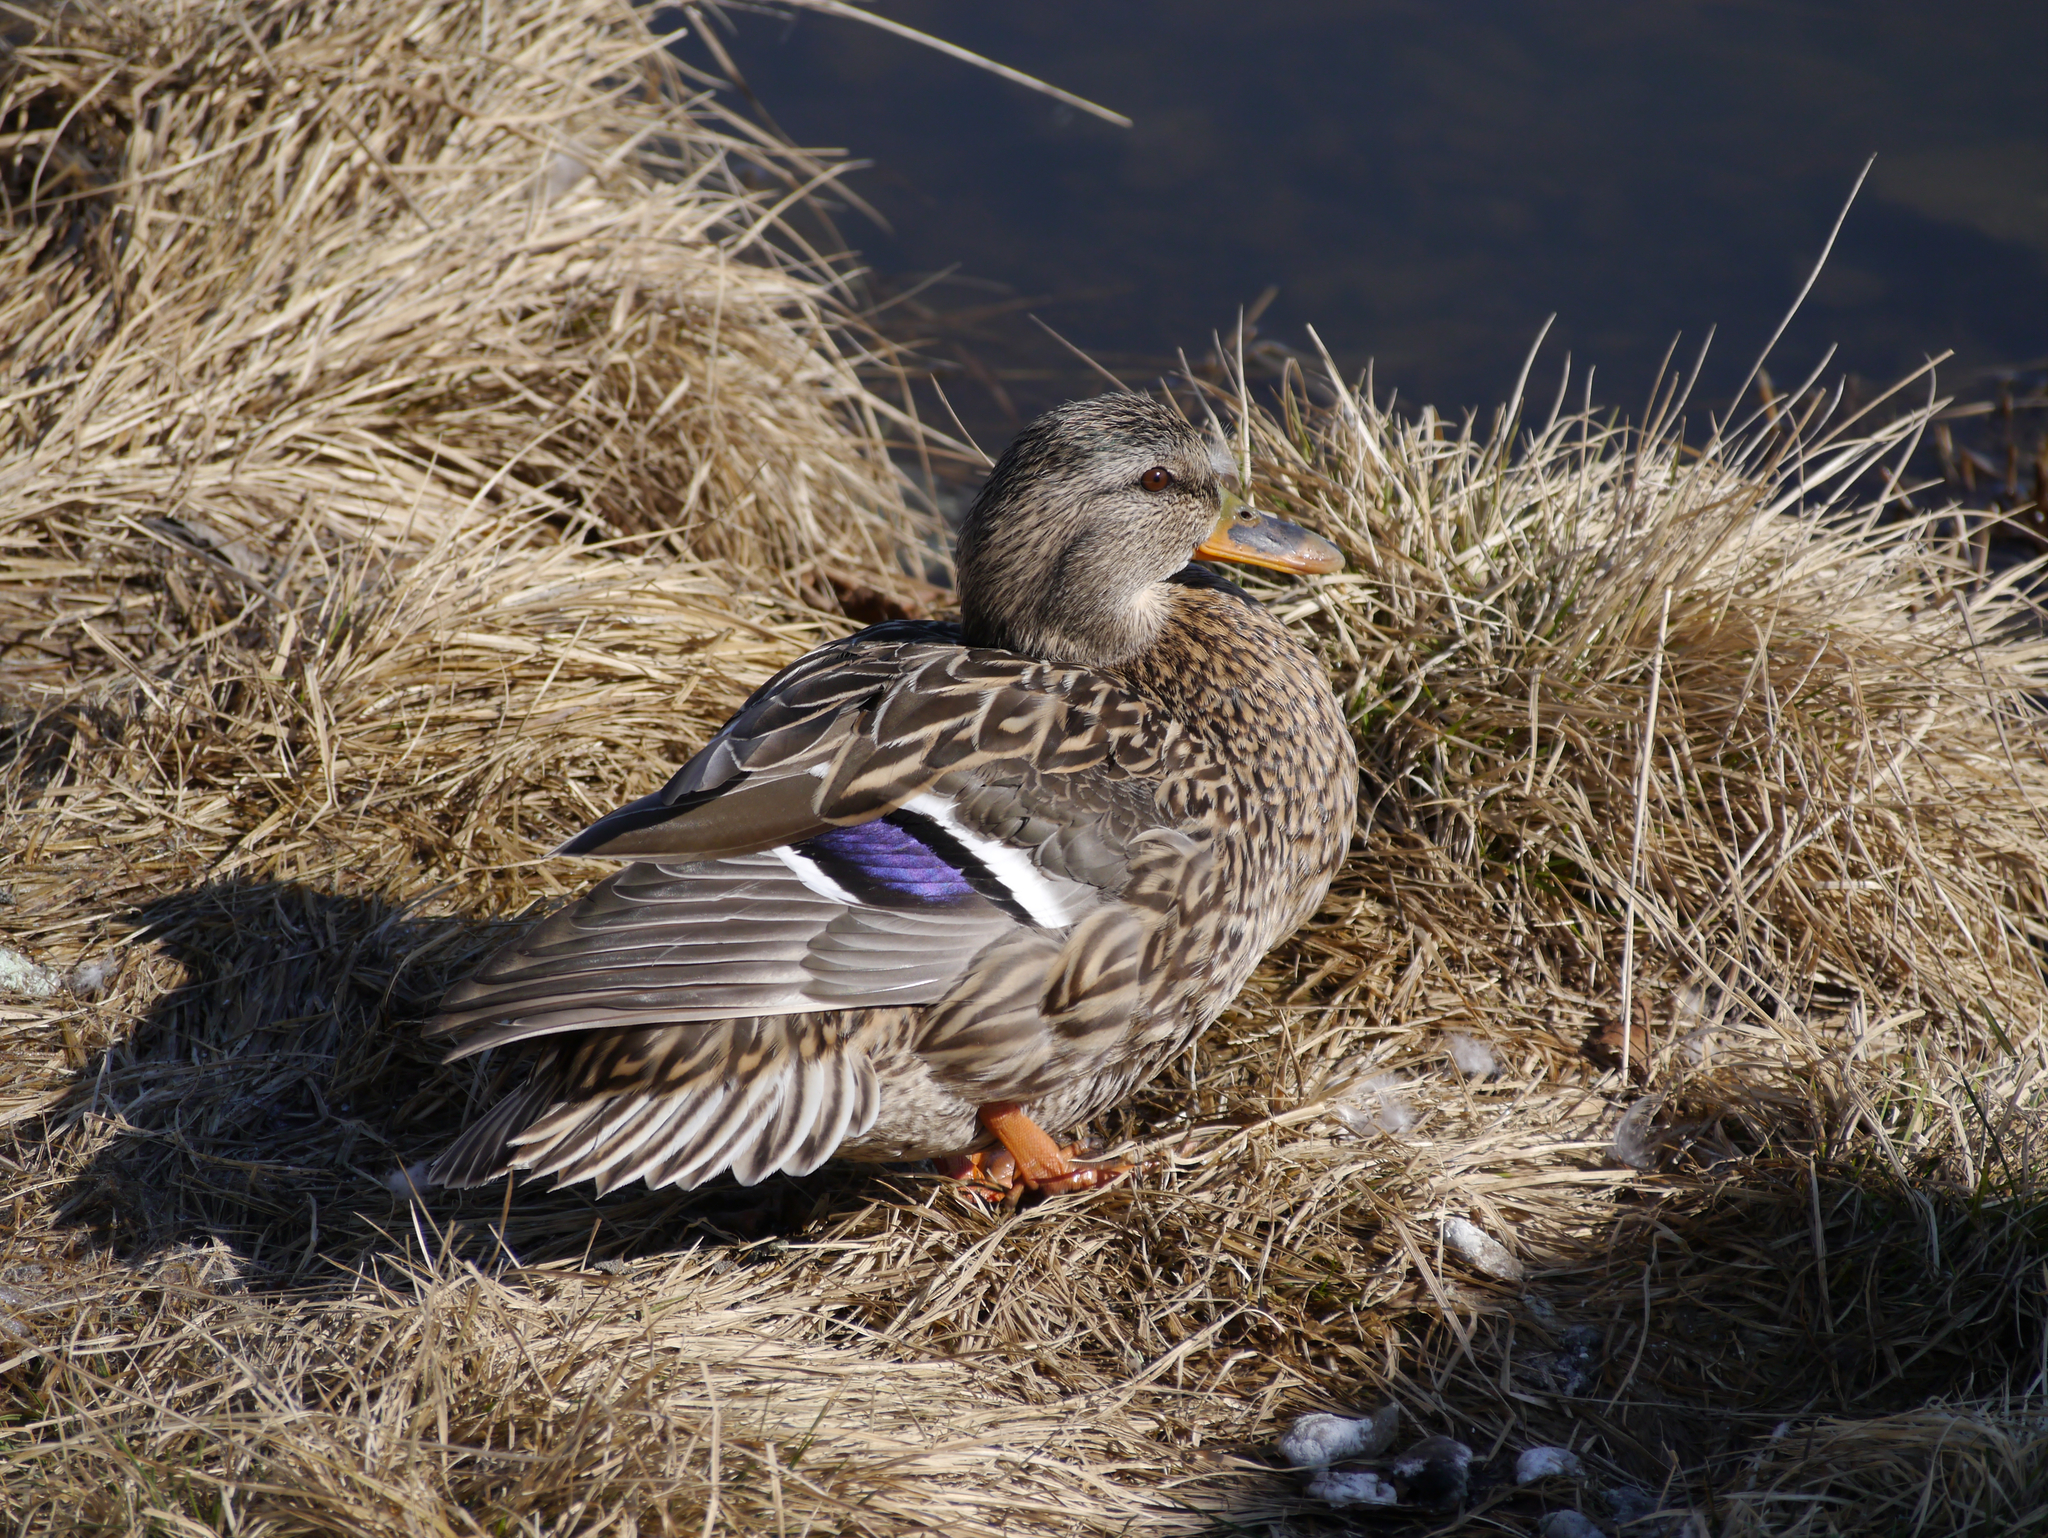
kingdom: Animalia
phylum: Chordata
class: Aves
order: Anseriformes
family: Anatidae
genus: Anas
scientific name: Anas platyrhynchos
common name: Mallard
